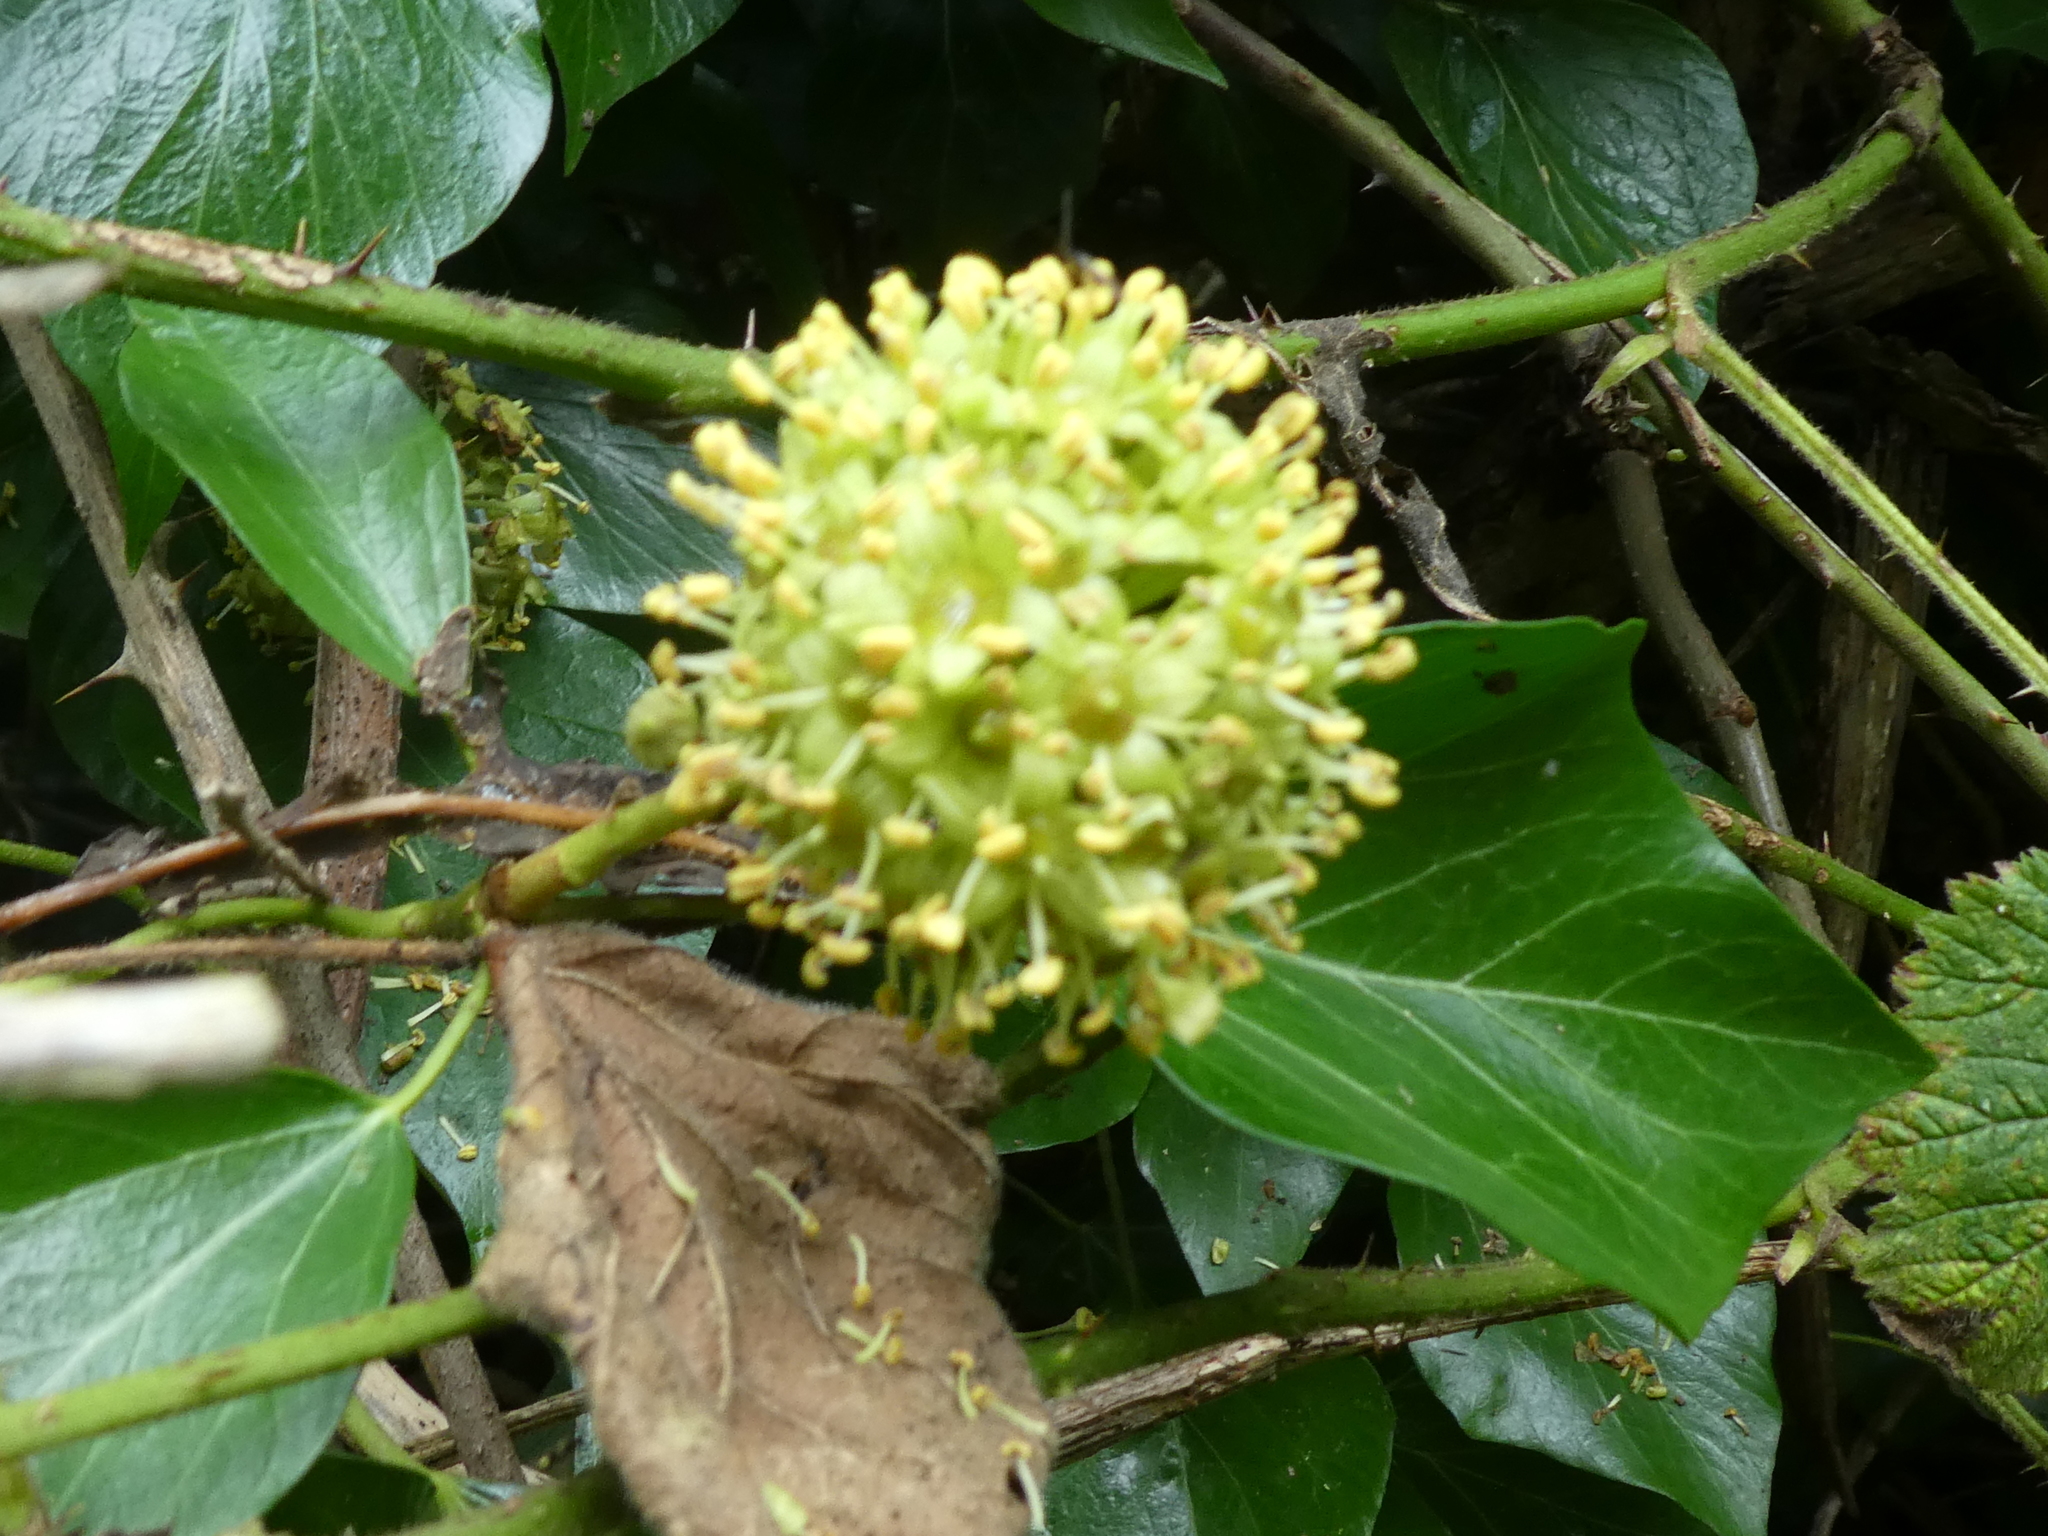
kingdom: Plantae
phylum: Tracheophyta
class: Magnoliopsida
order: Apiales
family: Araliaceae
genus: Hedera
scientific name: Hedera helix
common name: Ivy
